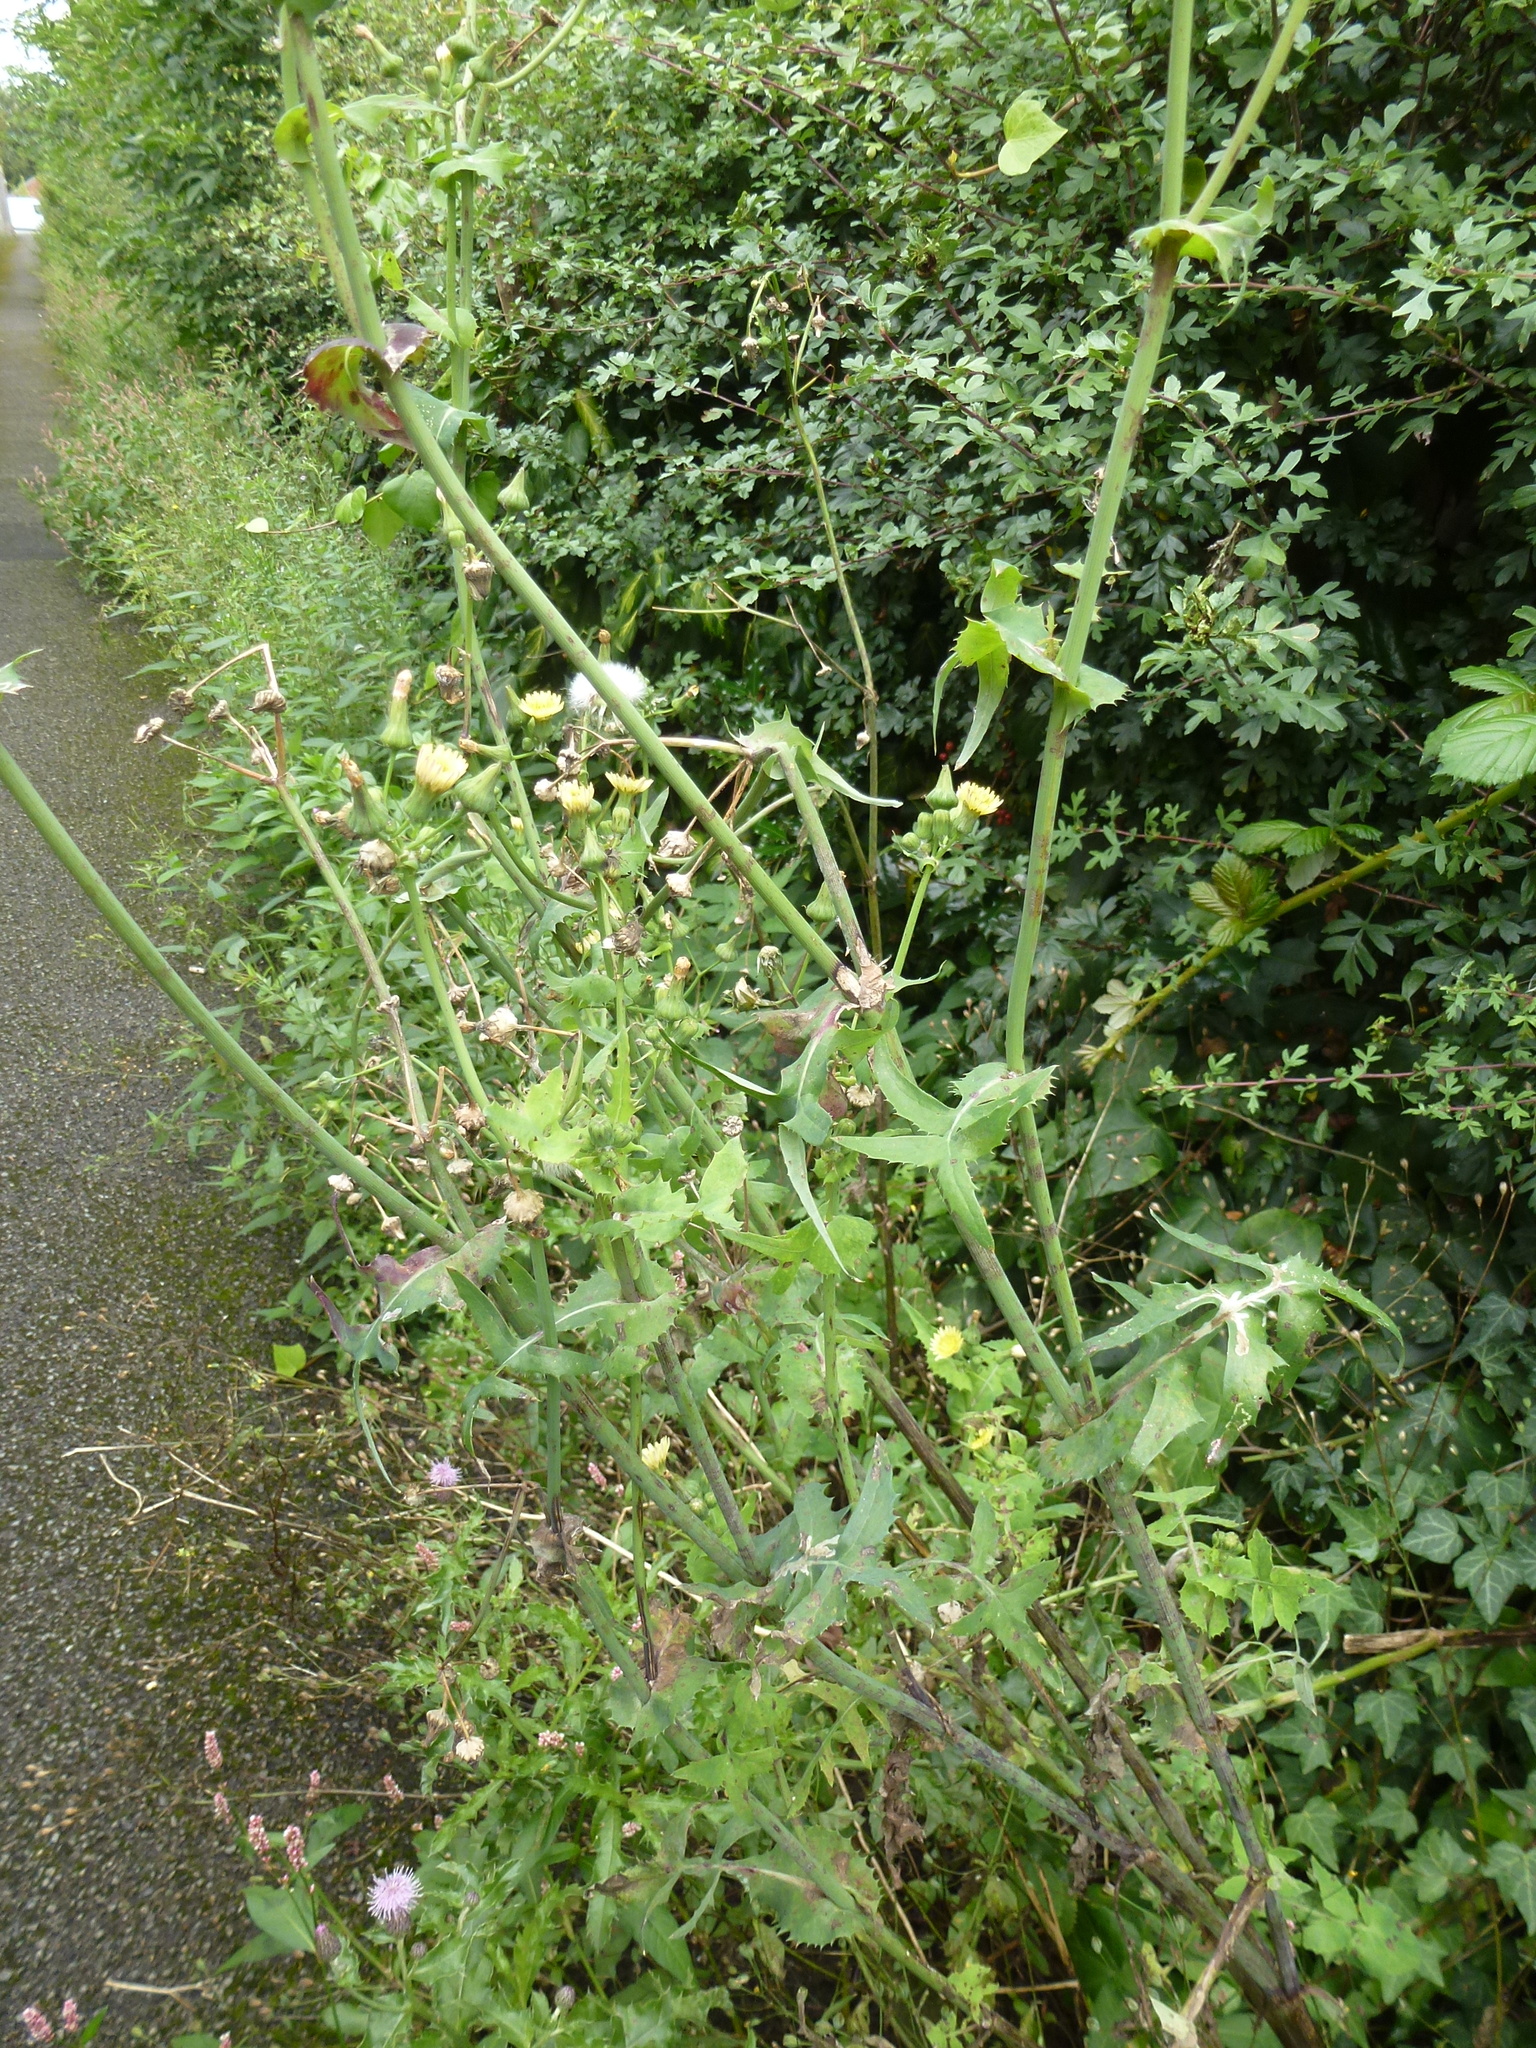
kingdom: Plantae
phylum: Tracheophyta
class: Magnoliopsida
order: Asterales
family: Asteraceae
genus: Sonchus
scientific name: Sonchus oleraceus
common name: Common sowthistle
